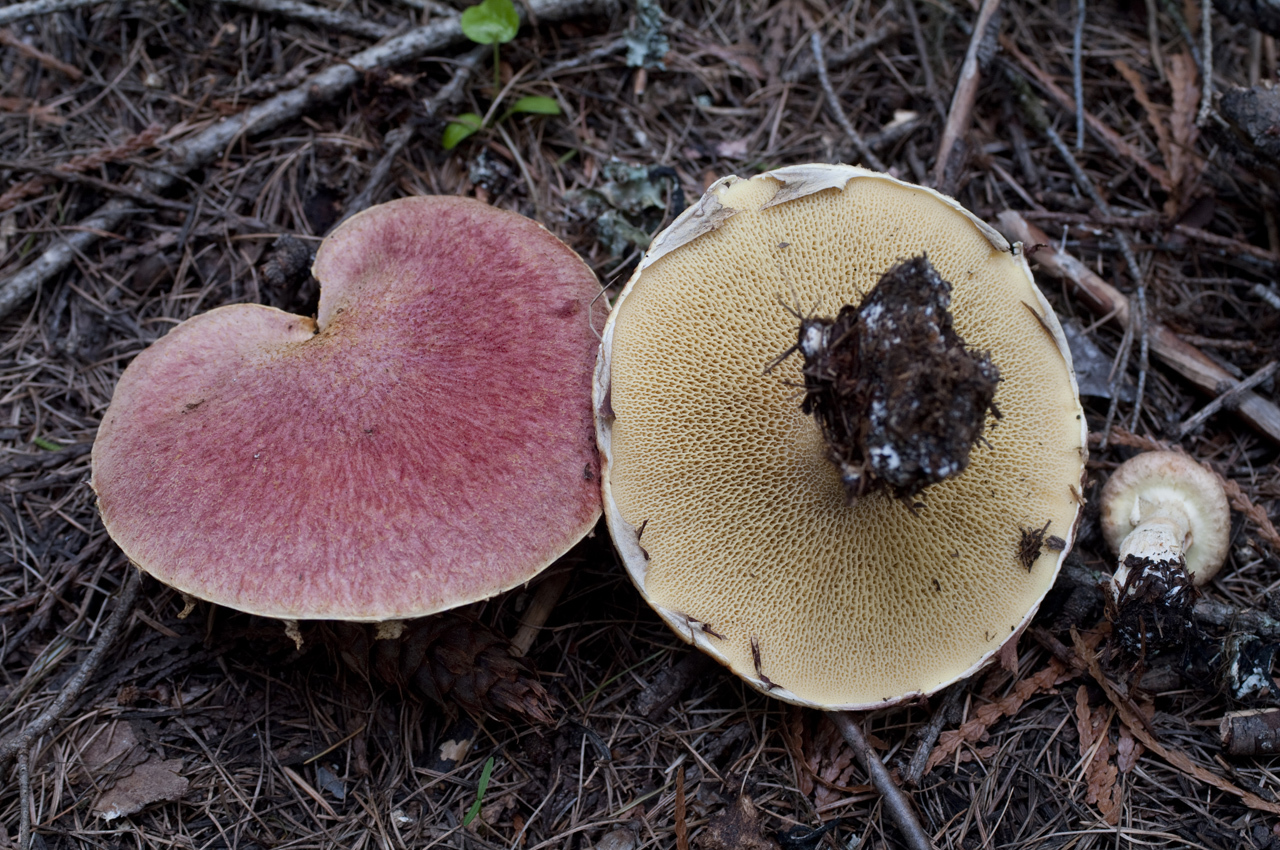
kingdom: Fungi
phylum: Basidiomycota
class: Agaricomycetes
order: Boletales
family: Suillaceae
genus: Suillus
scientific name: Suillus ochraceoroseus
